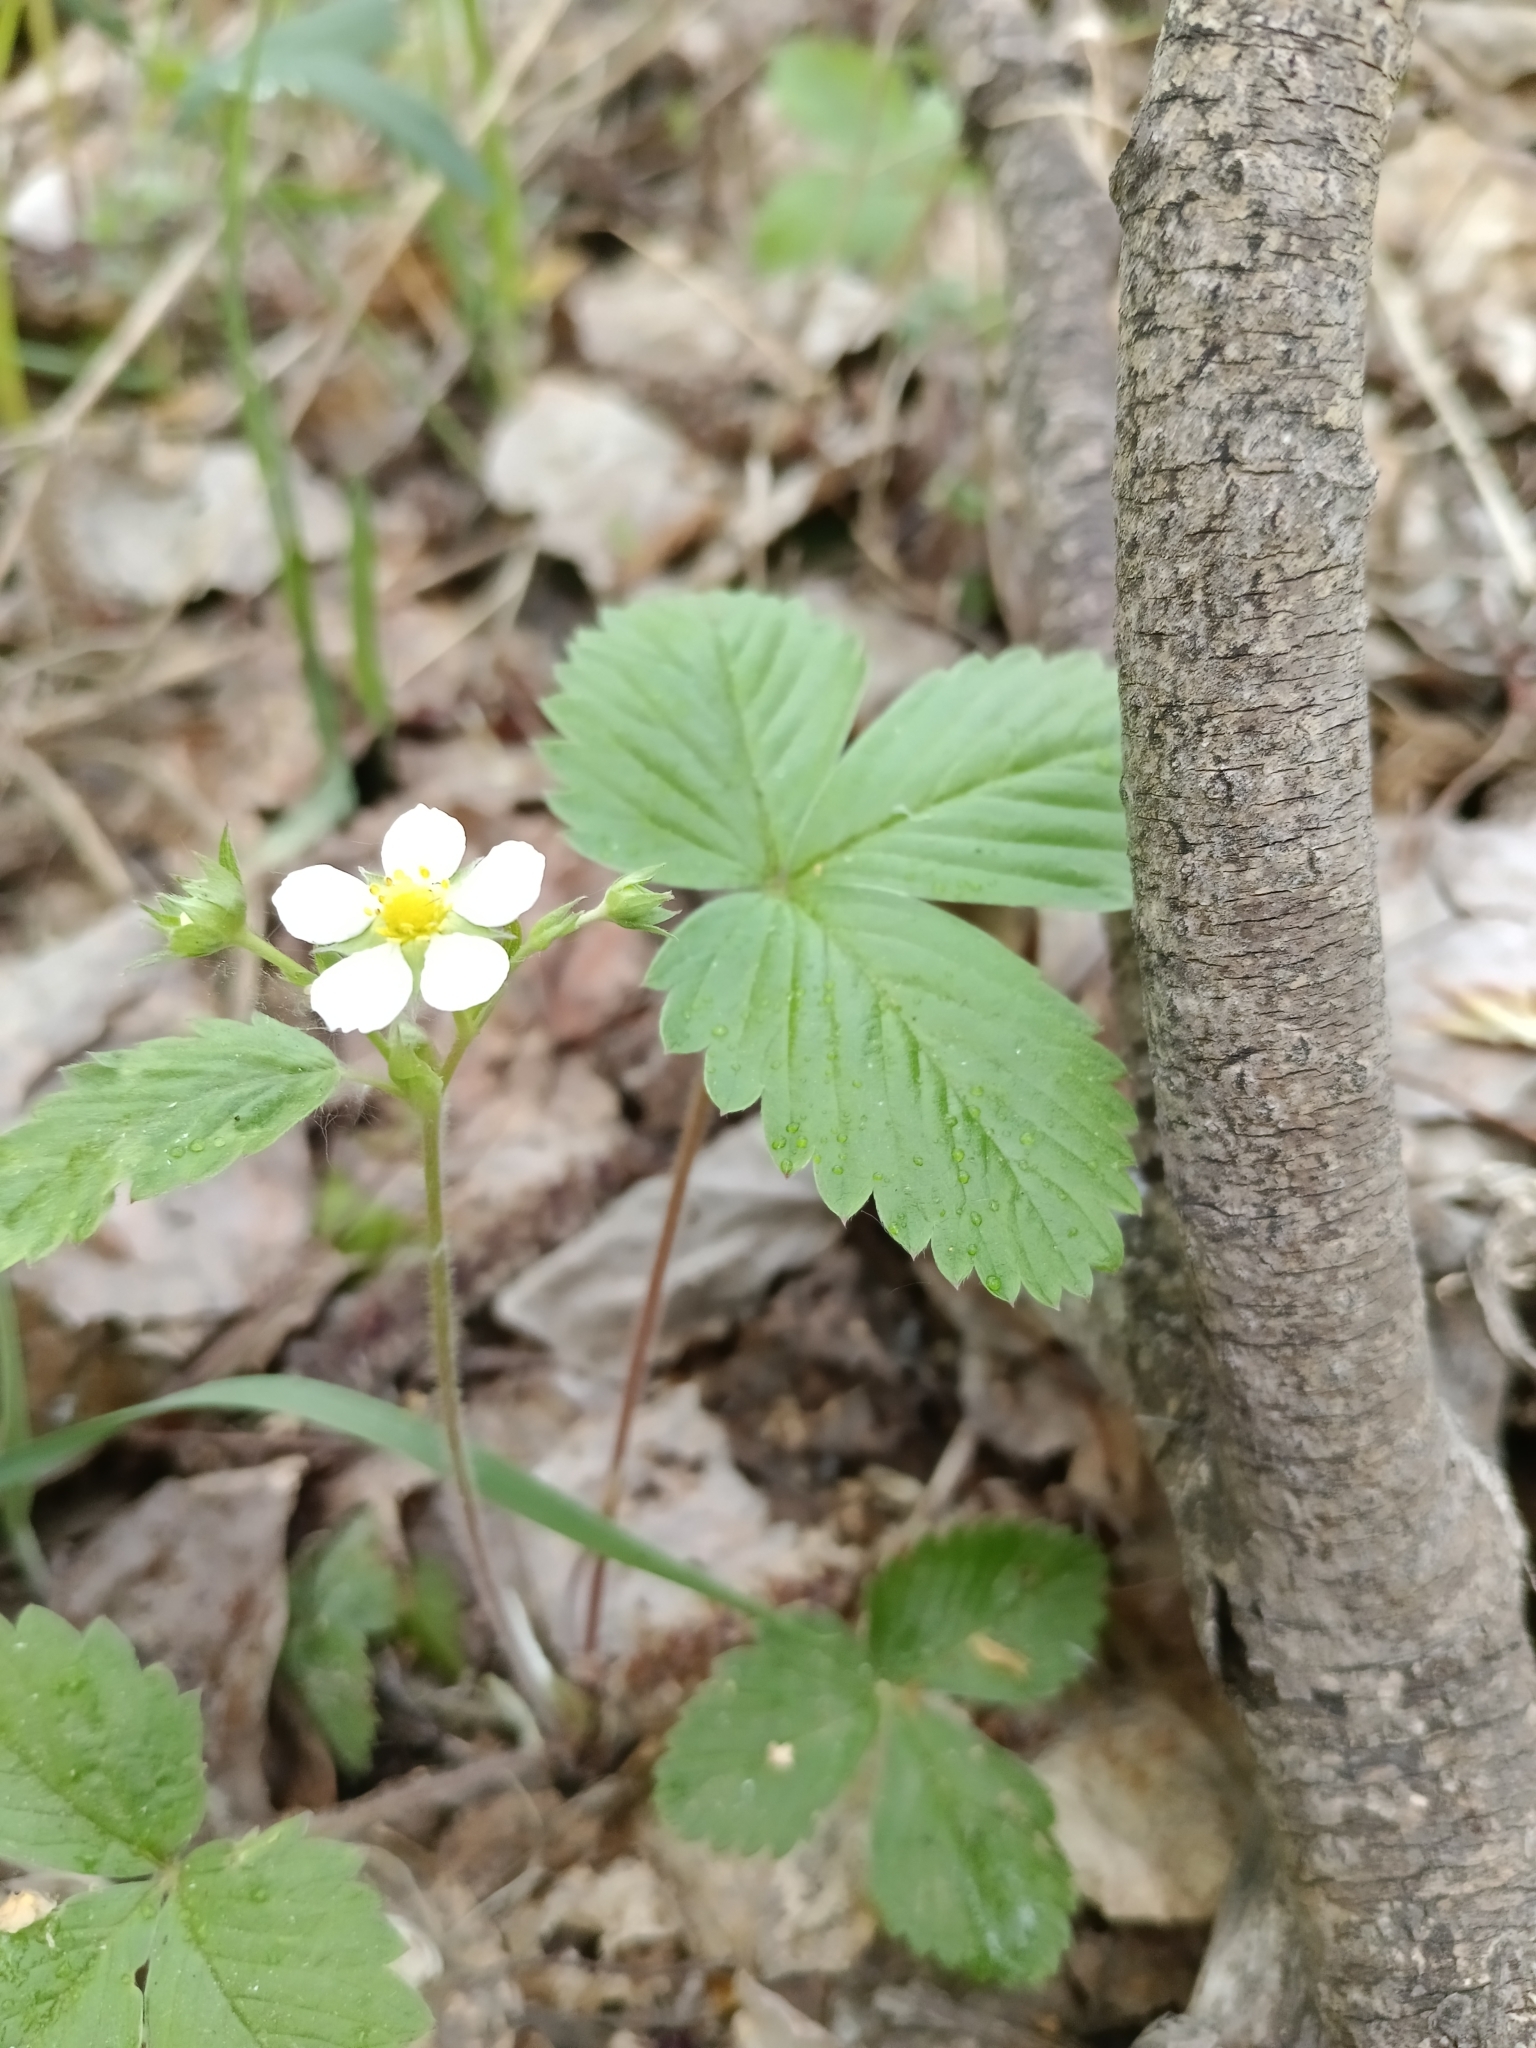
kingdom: Plantae
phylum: Tracheophyta
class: Magnoliopsida
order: Rosales
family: Rosaceae
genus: Fragaria
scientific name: Fragaria vesca
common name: Wild strawberry
